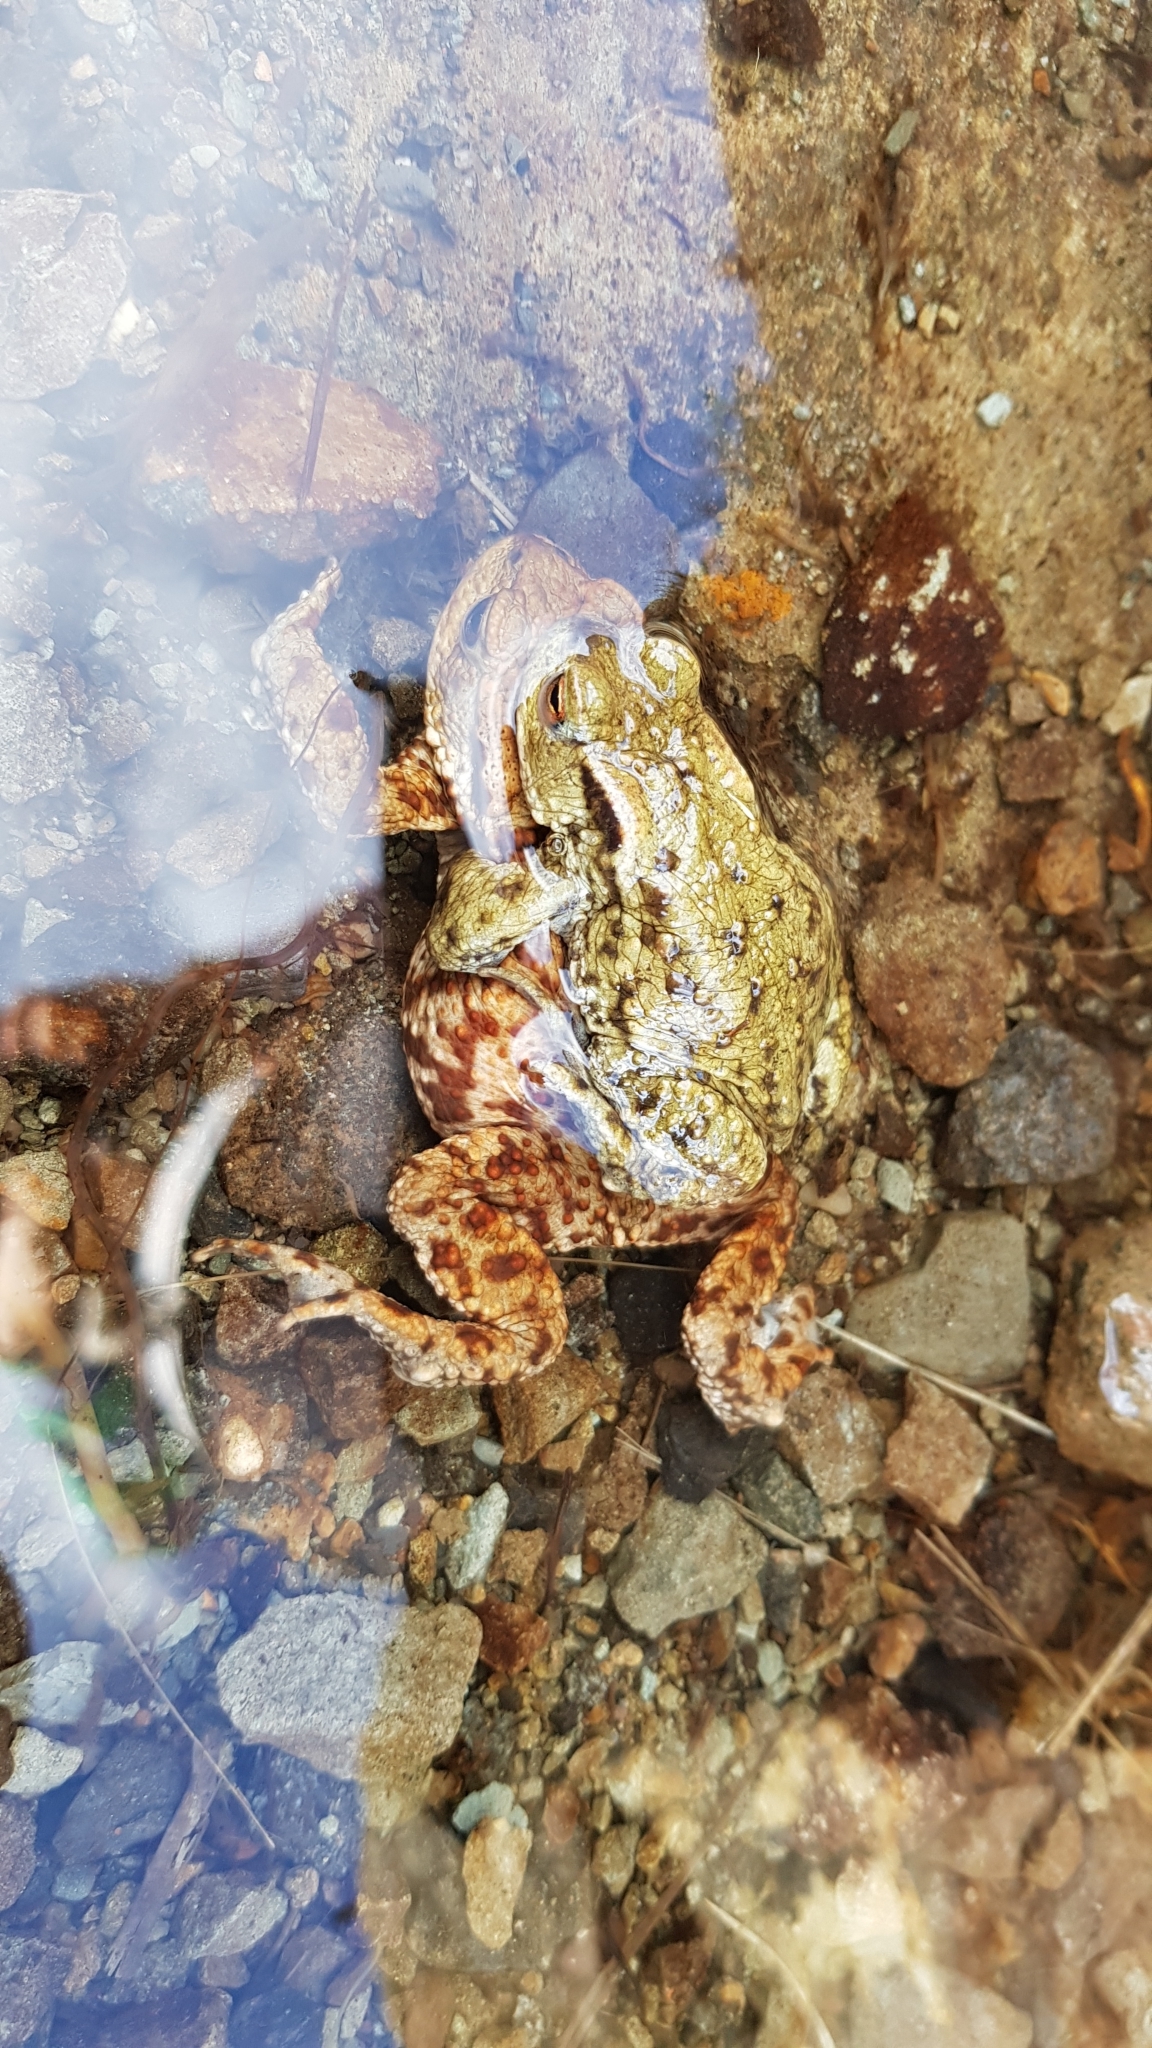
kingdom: Animalia
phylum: Chordata
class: Amphibia
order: Anura
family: Bufonidae
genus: Bufo
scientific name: Bufo bufo
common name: Common toad
